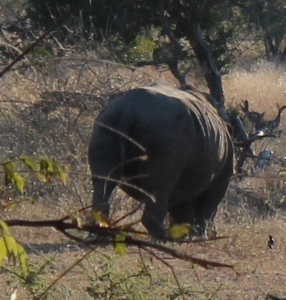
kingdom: Animalia
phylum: Chordata
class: Mammalia
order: Perissodactyla
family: Rhinocerotidae
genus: Ceratotherium
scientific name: Ceratotherium simum
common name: White rhinoceros
